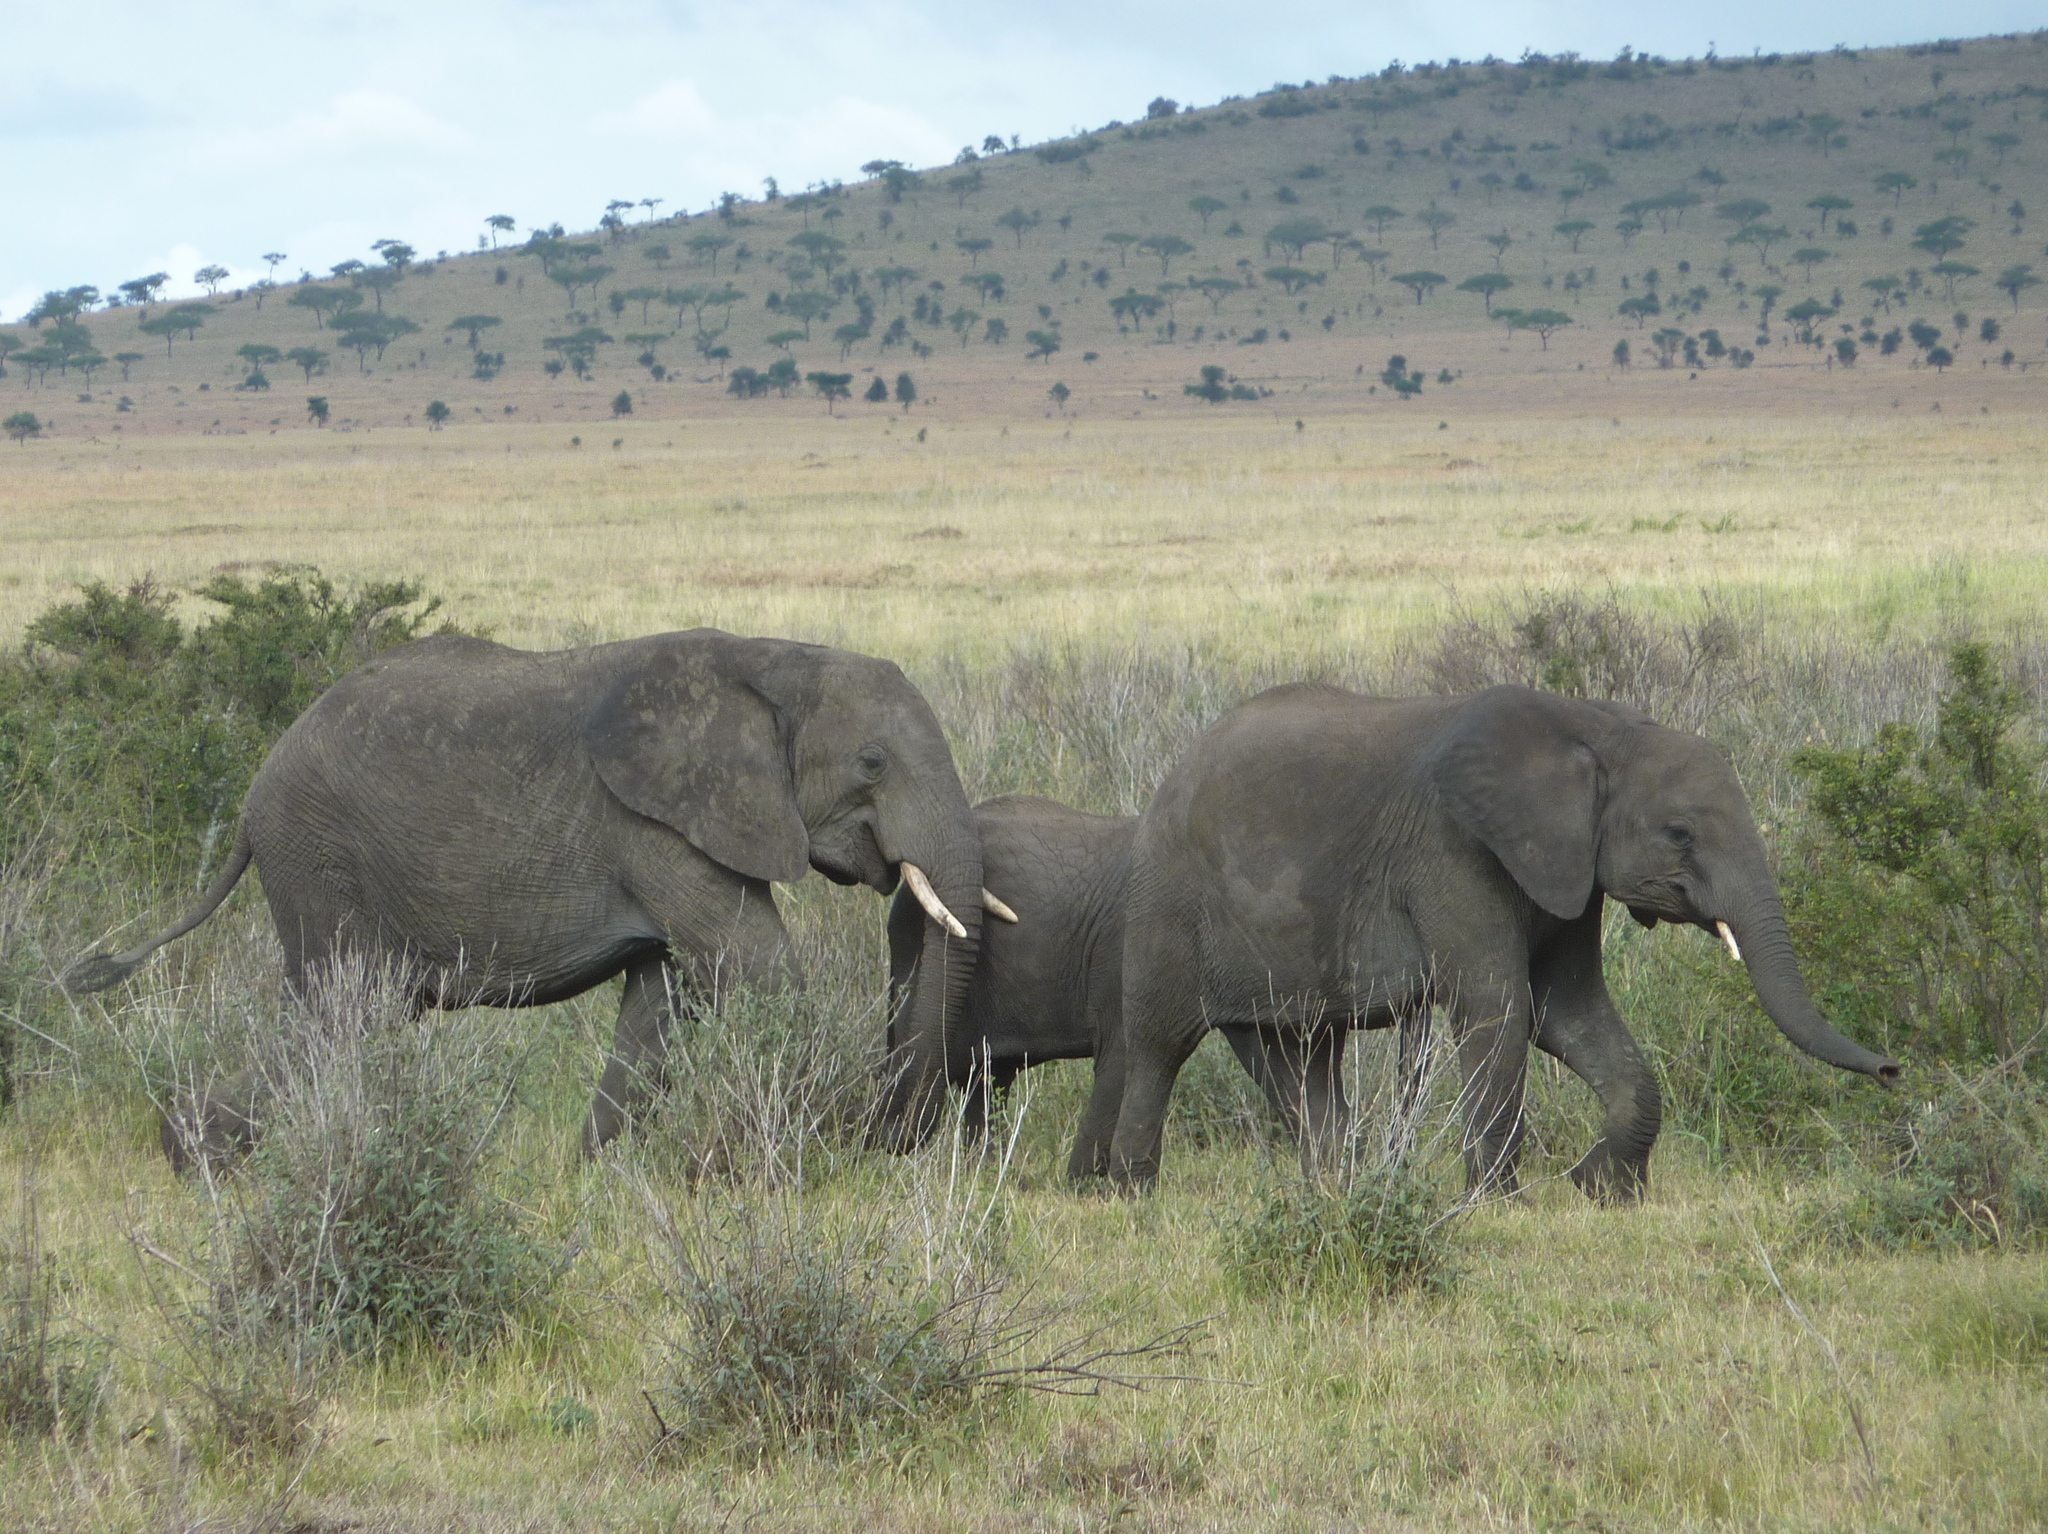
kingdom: Animalia
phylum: Chordata
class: Mammalia
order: Proboscidea
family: Elephantidae
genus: Loxodonta
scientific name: Loxodonta africana
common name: African elephant
